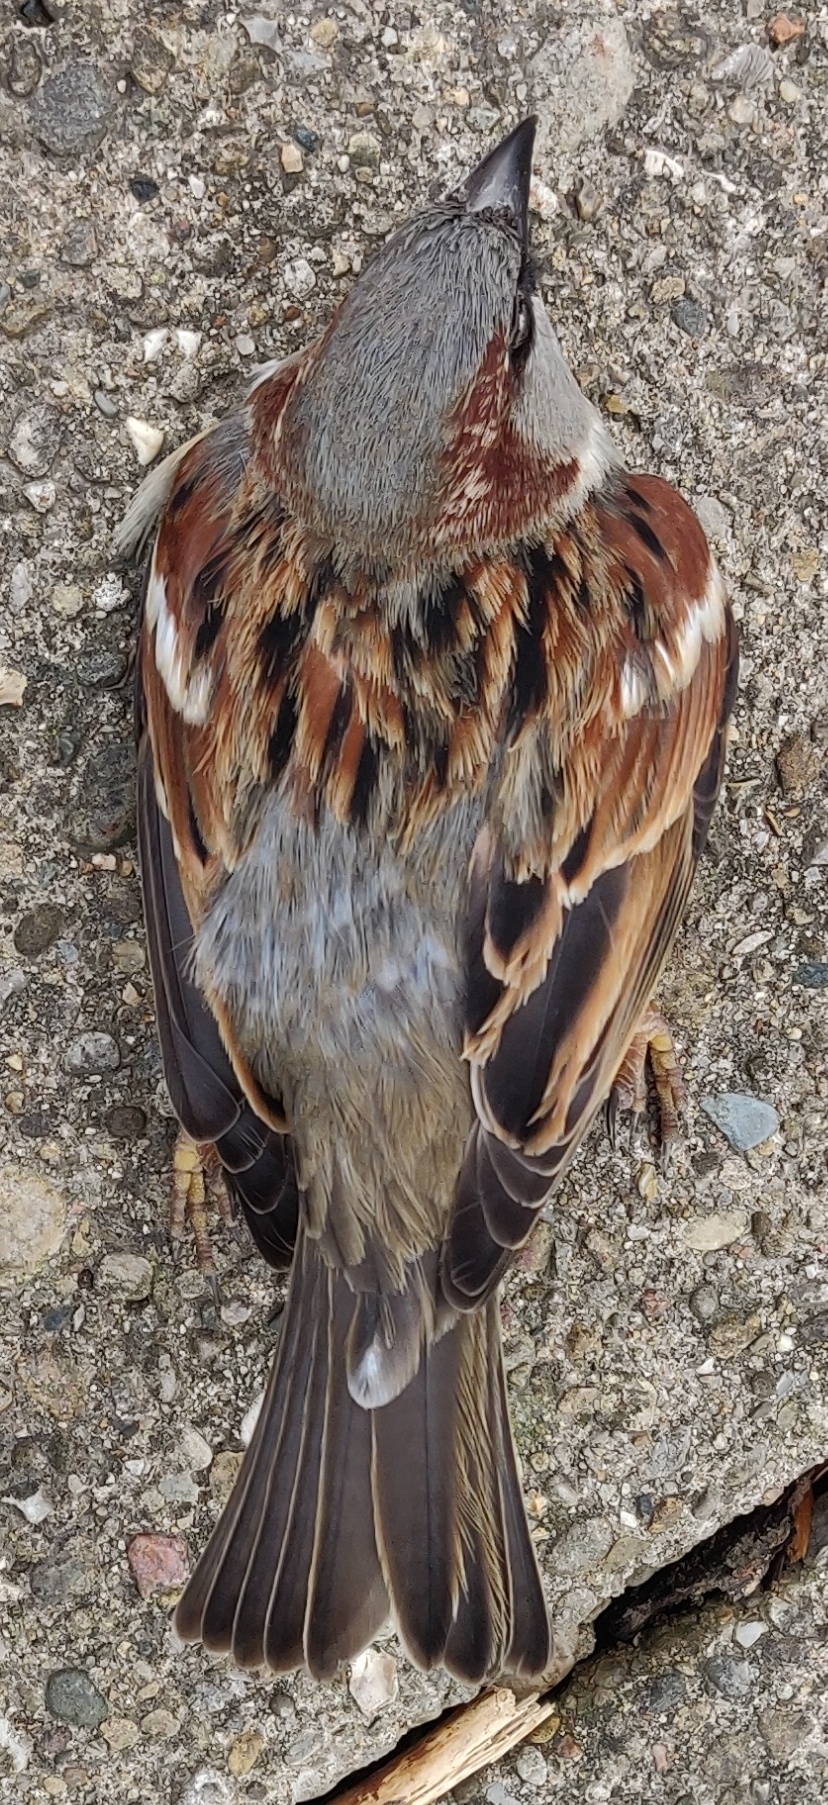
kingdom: Animalia
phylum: Chordata
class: Aves
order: Passeriformes
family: Passeridae
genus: Passer
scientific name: Passer domesticus
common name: House sparrow
